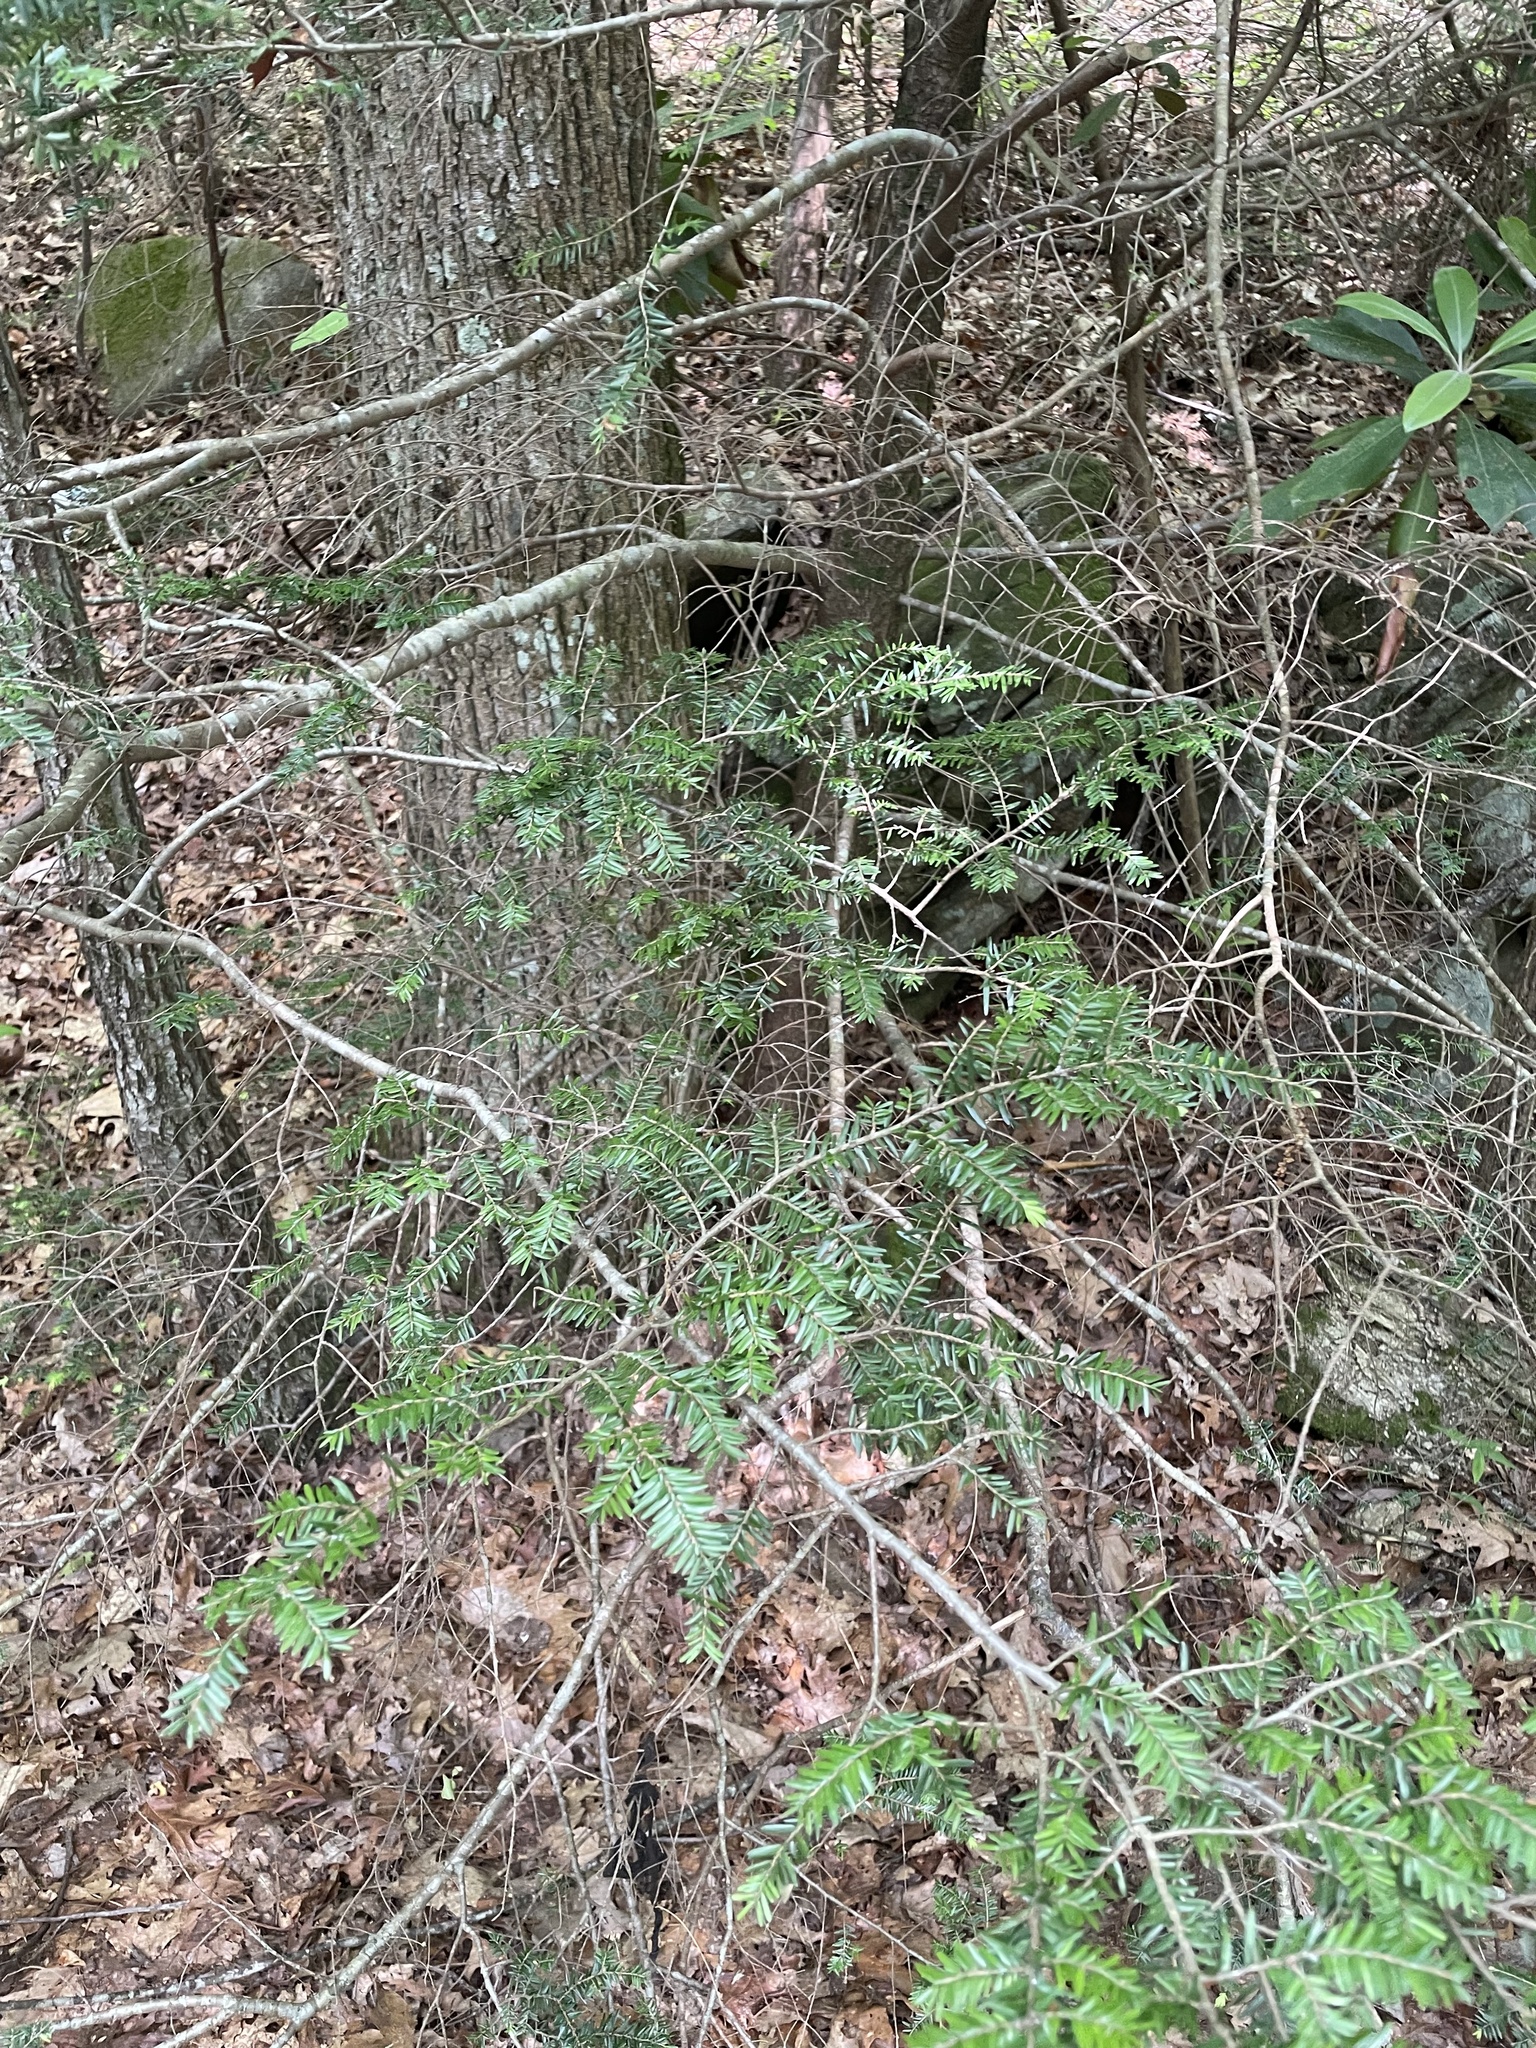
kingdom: Plantae
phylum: Tracheophyta
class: Pinopsida
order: Pinales
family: Pinaceae
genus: Tsuga
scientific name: Tsuga canadensis
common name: Eastern hemlock
